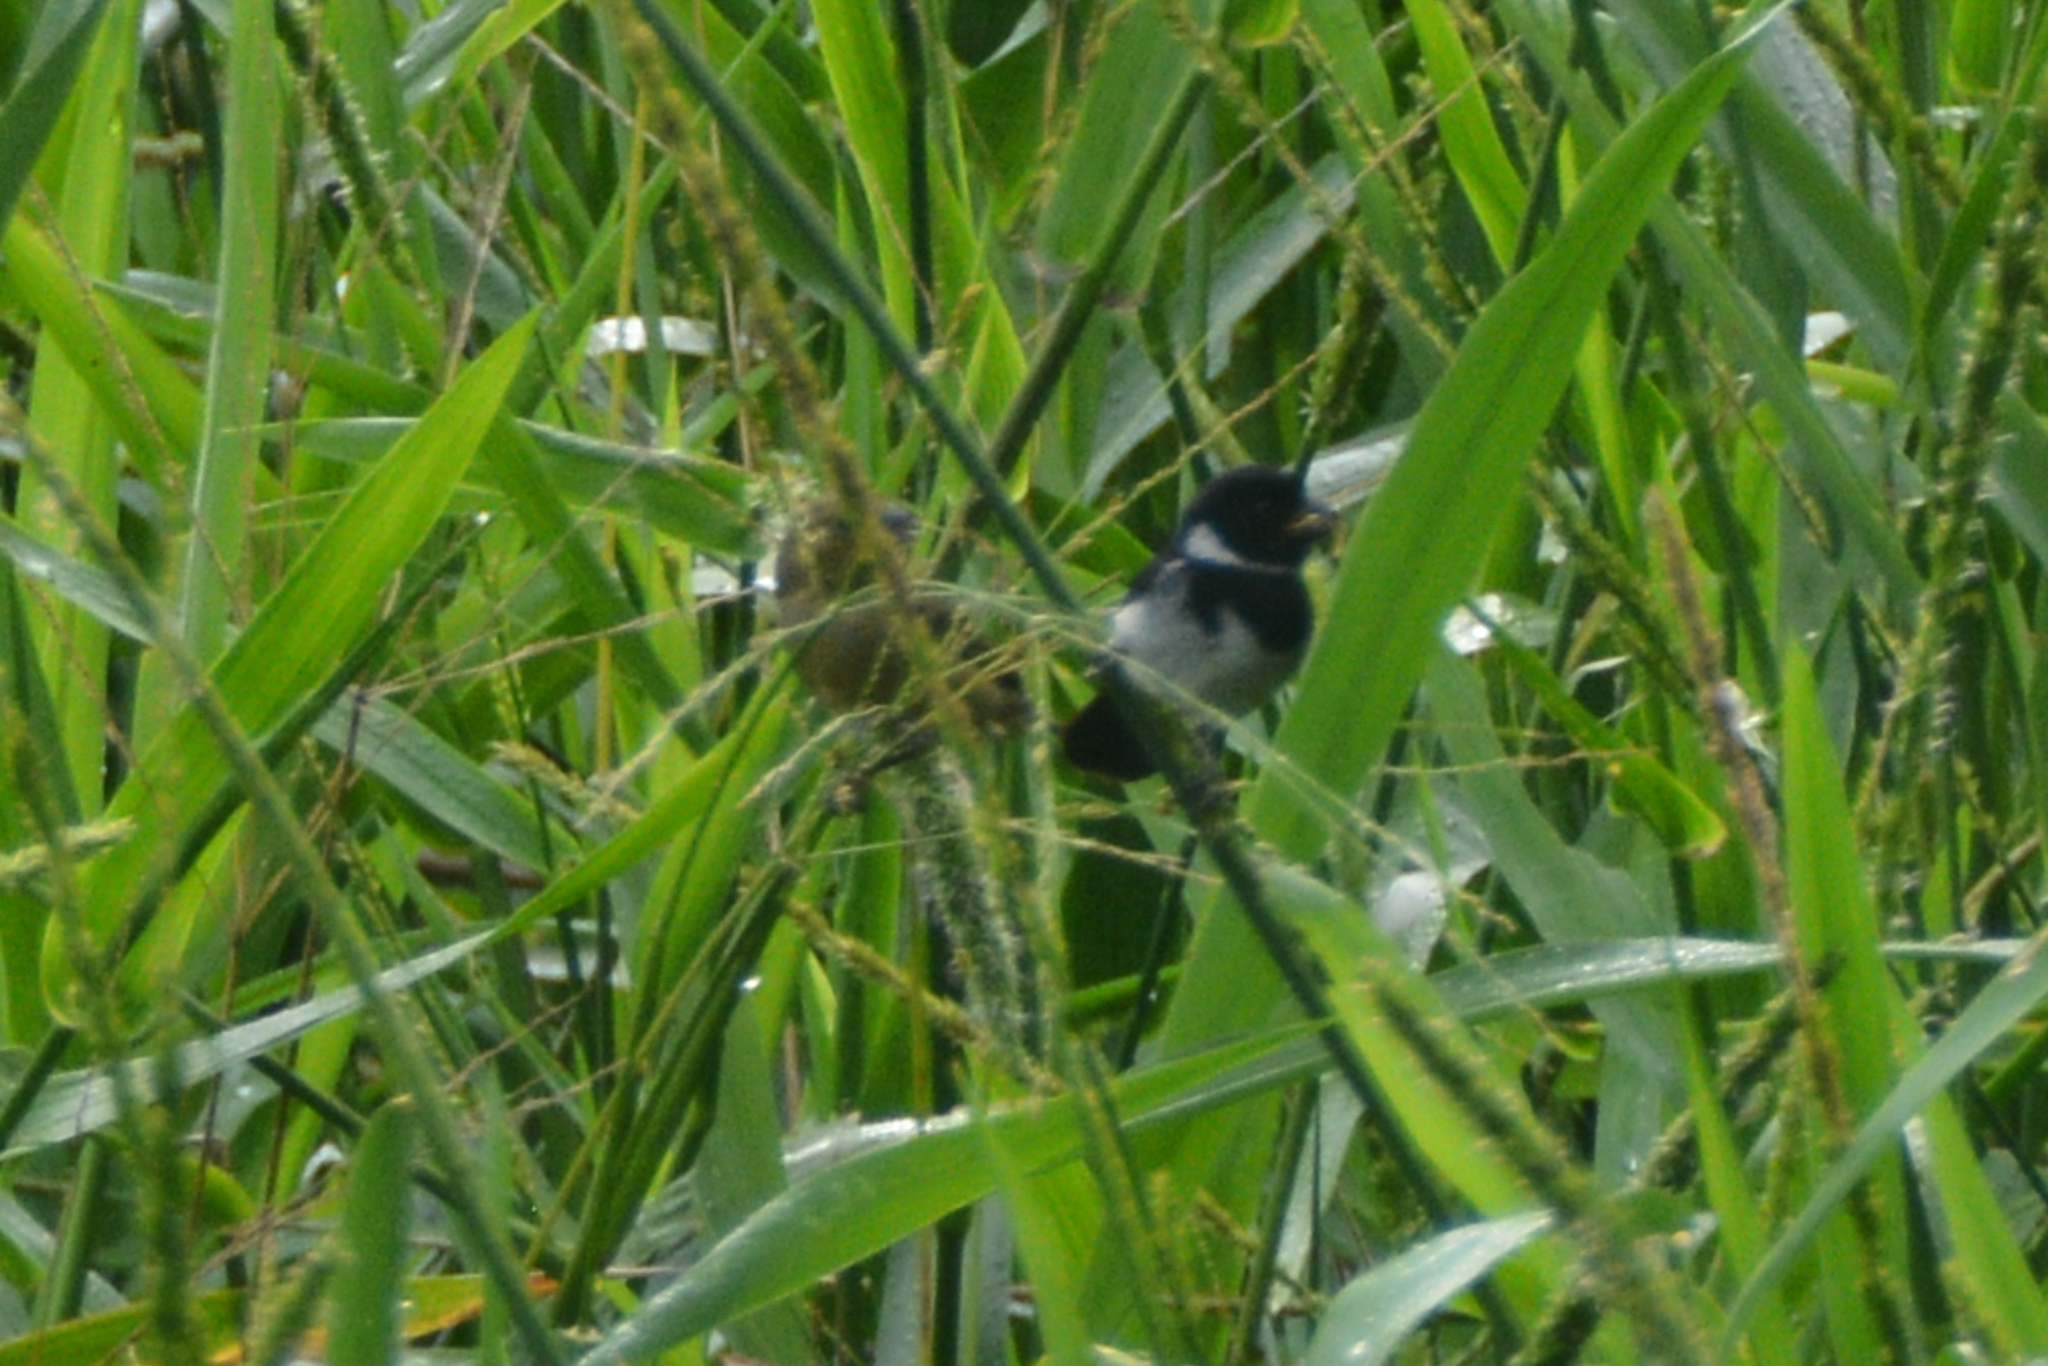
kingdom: Animalia
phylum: Chordata
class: Aves
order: Passeriformes
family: Thraupidae
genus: Sporophila
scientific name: Sporophila corvina
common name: Variable seedeater
